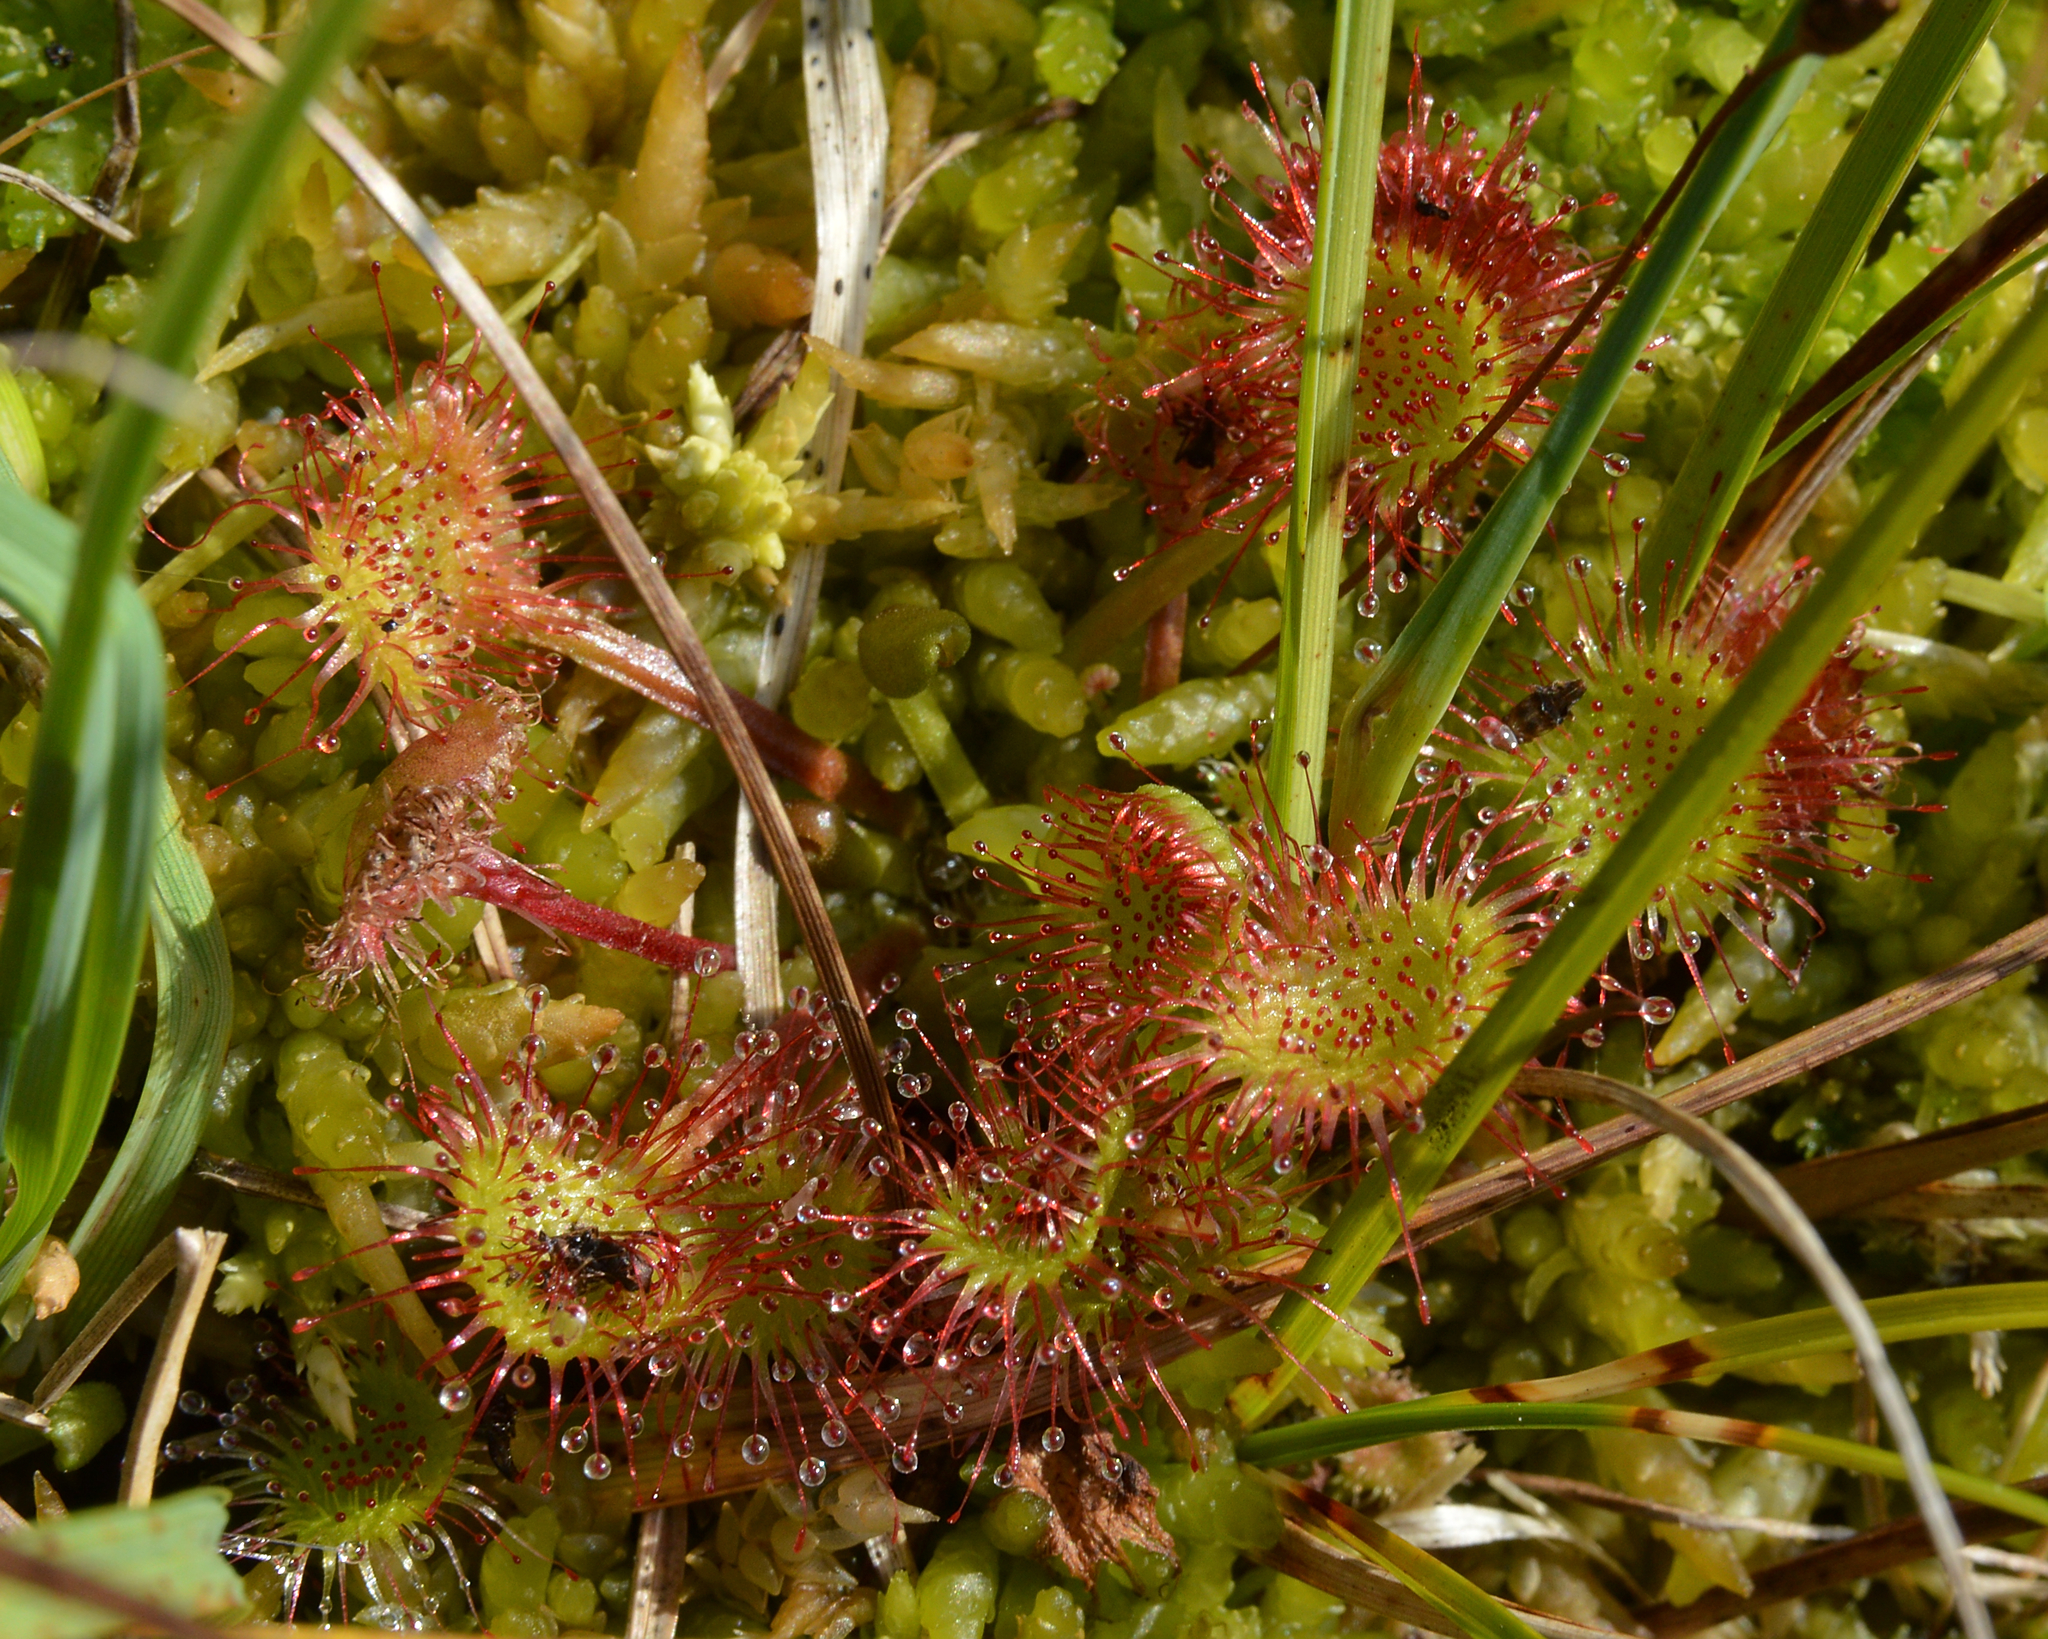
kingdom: Plantae
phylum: Tracheophyta
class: Magnoliopsida
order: Caryophyllales
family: Droseraceae
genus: Drosera
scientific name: Drosera rotundifolia
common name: Round-leaved sundew
